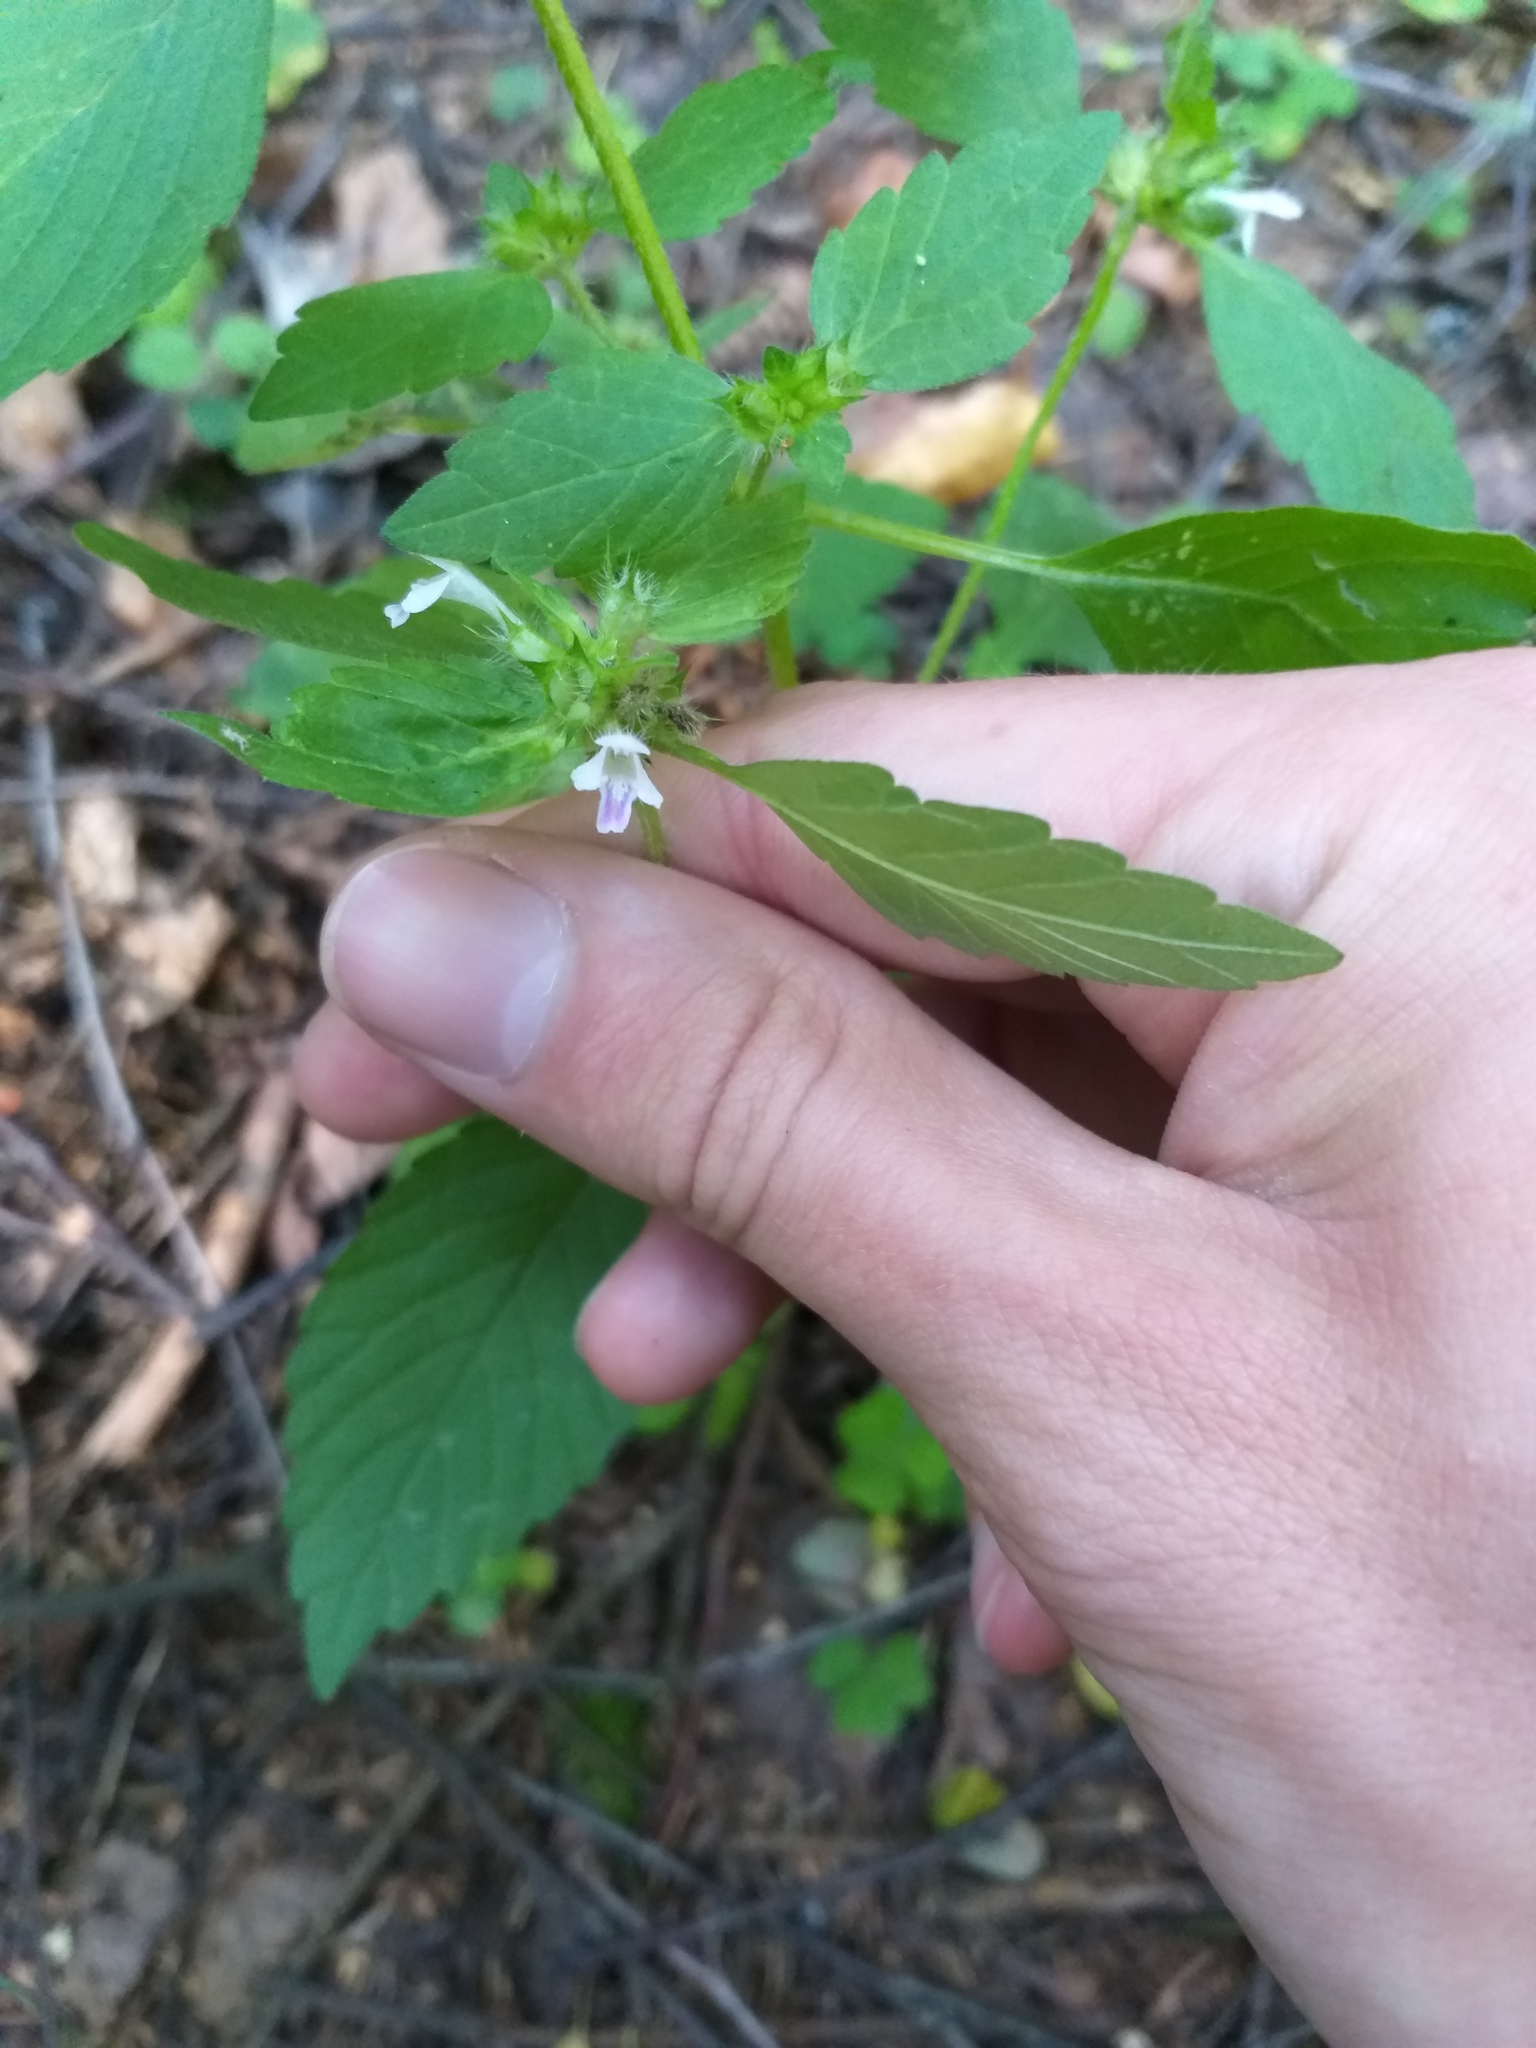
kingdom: Plantae
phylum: Tracheophyta
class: Magnoliopsida
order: Lamiales
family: Lamiaceae
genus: Galeopsis
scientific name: Galeopsis bifida
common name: Bifid hemp-nettle
